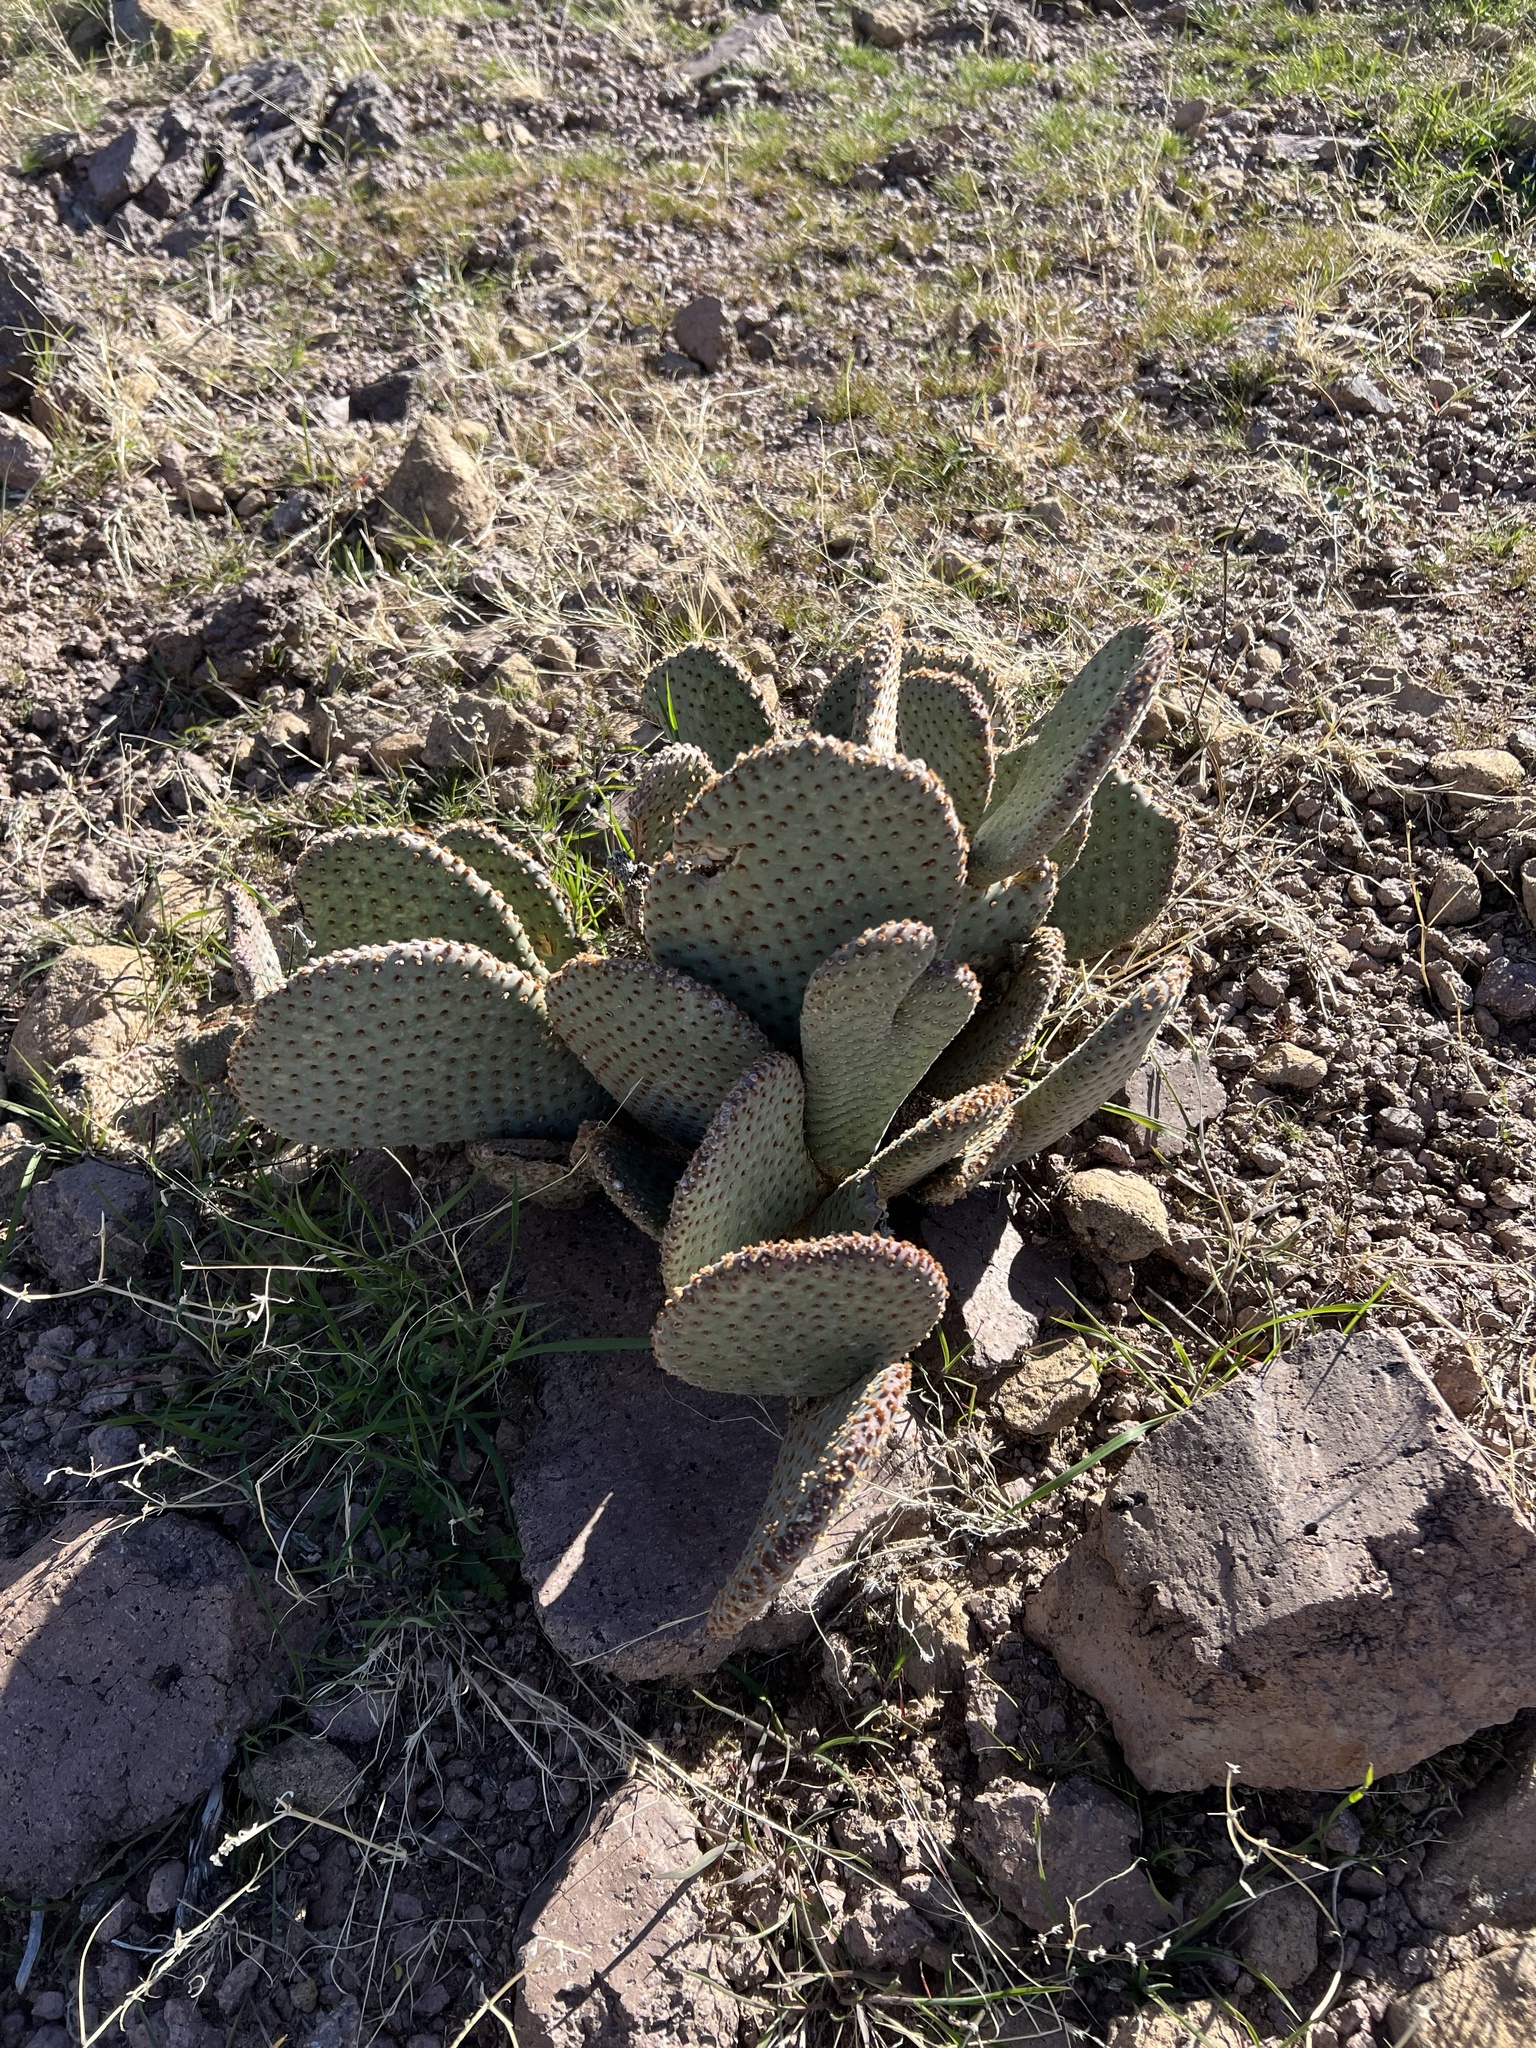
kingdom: Plantae
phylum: Tracheophyta
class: Magnoliopsida
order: Caryophyllales
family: Cactaceae
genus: Opuntia
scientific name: Opuntia basilaris
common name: Beavertail prickly-pear
